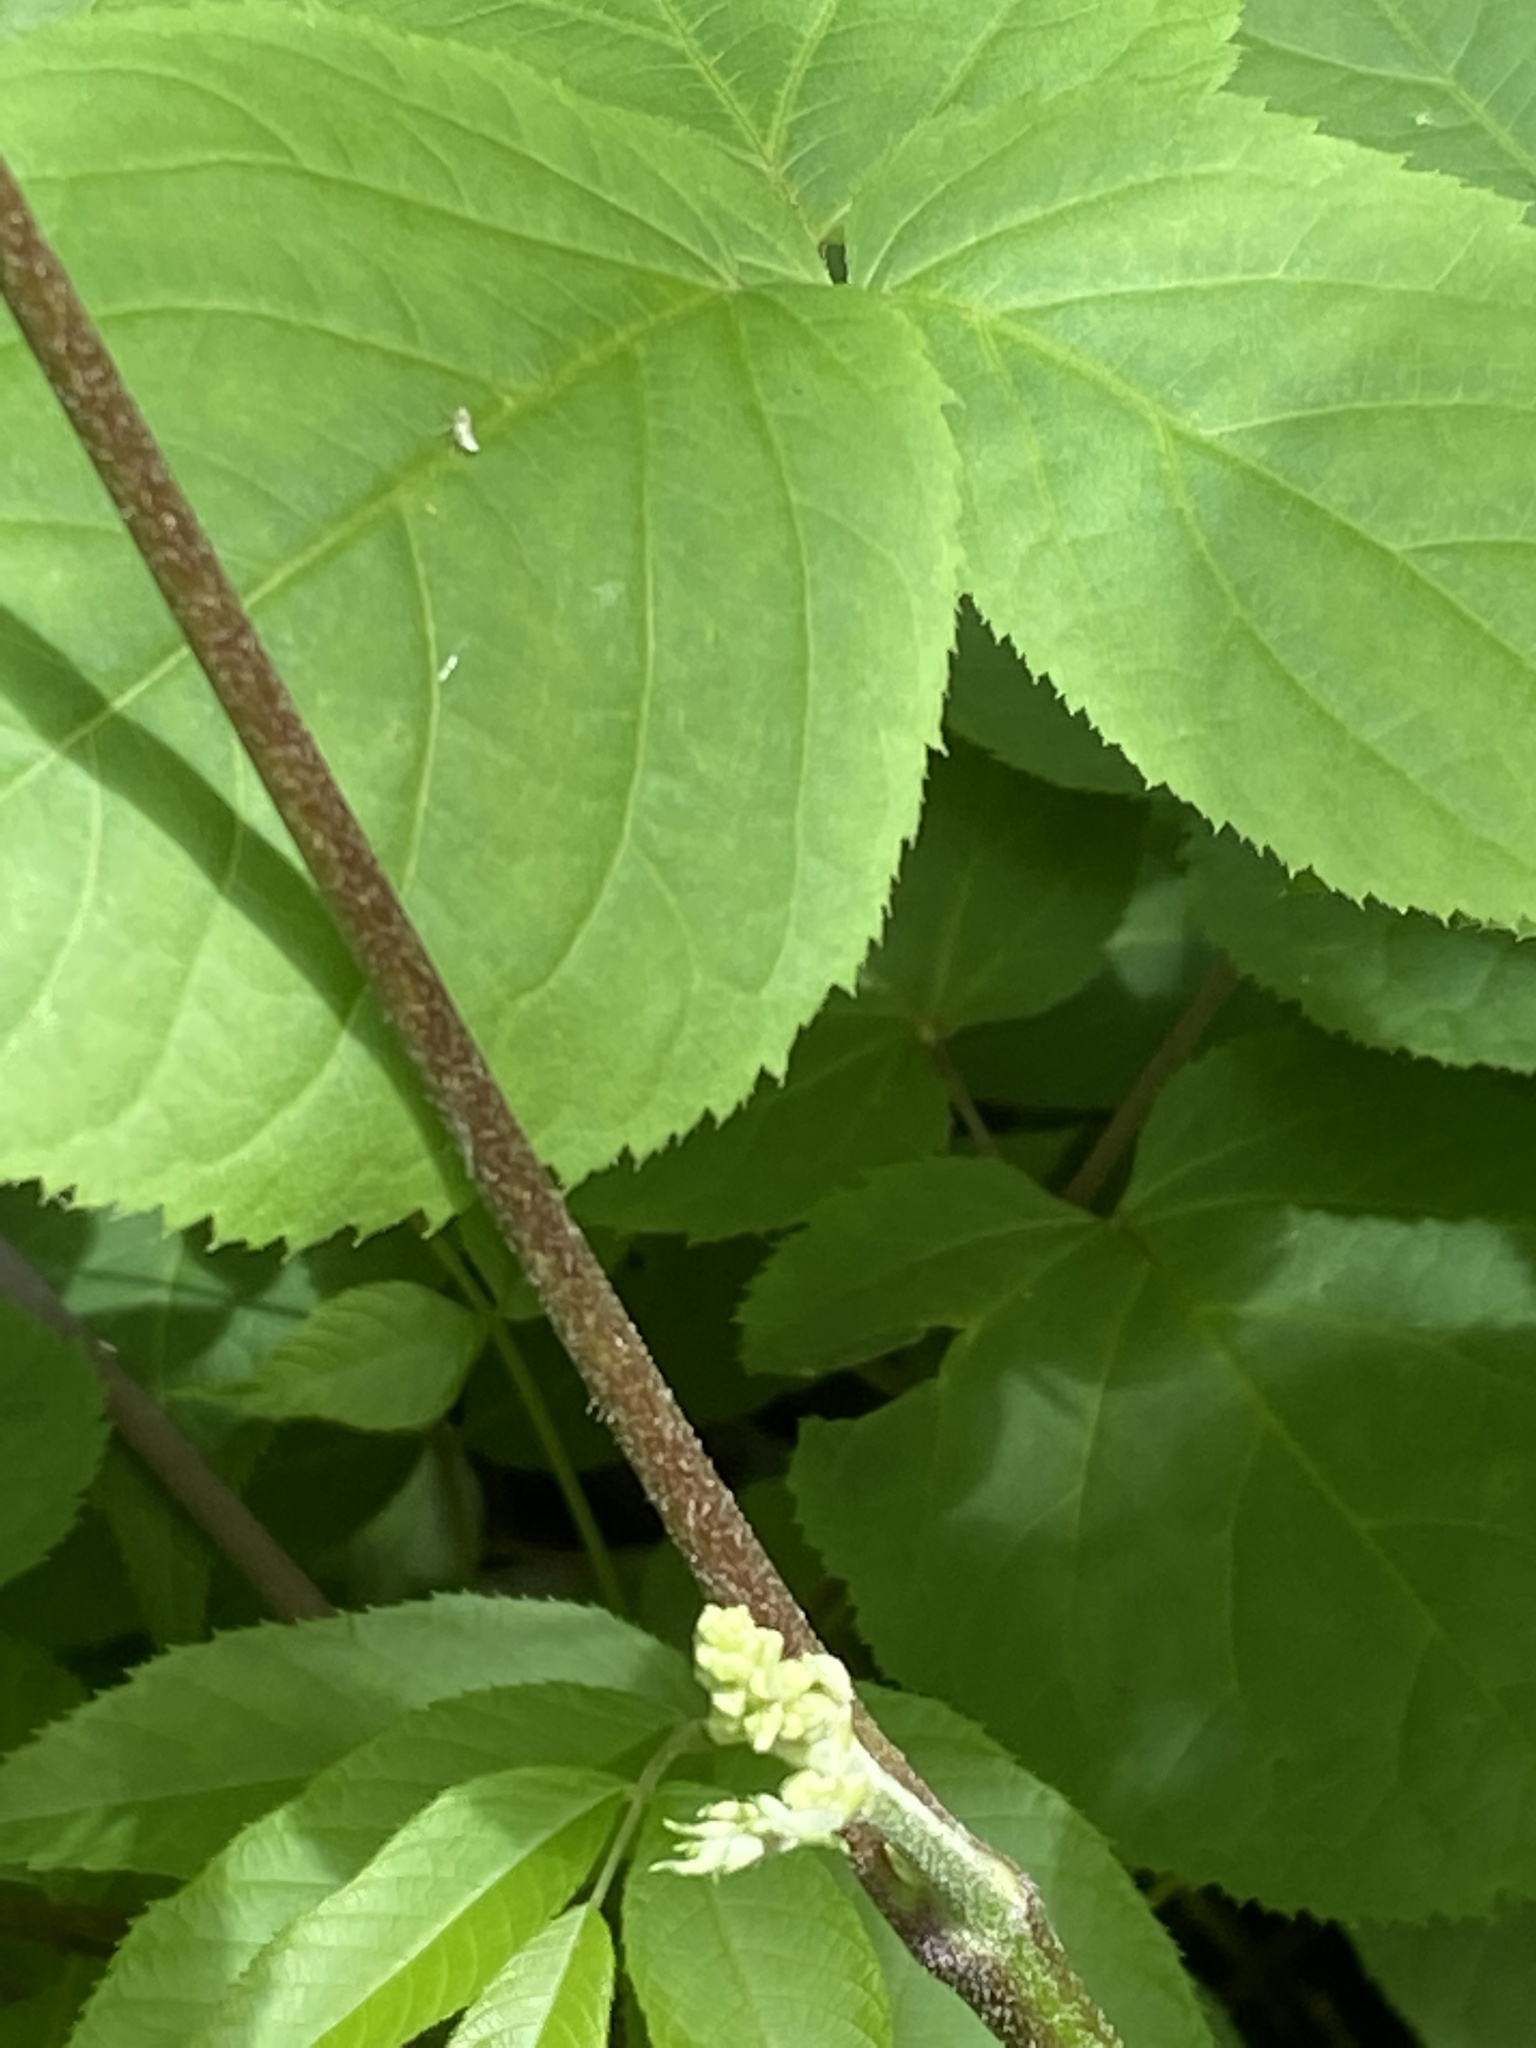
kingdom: Plantae
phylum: Tracheophyta
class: Magnoliopsida
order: Apiales
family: Araliaceae
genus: Aralia
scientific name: Aralia racemosa
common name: American-spikenard
